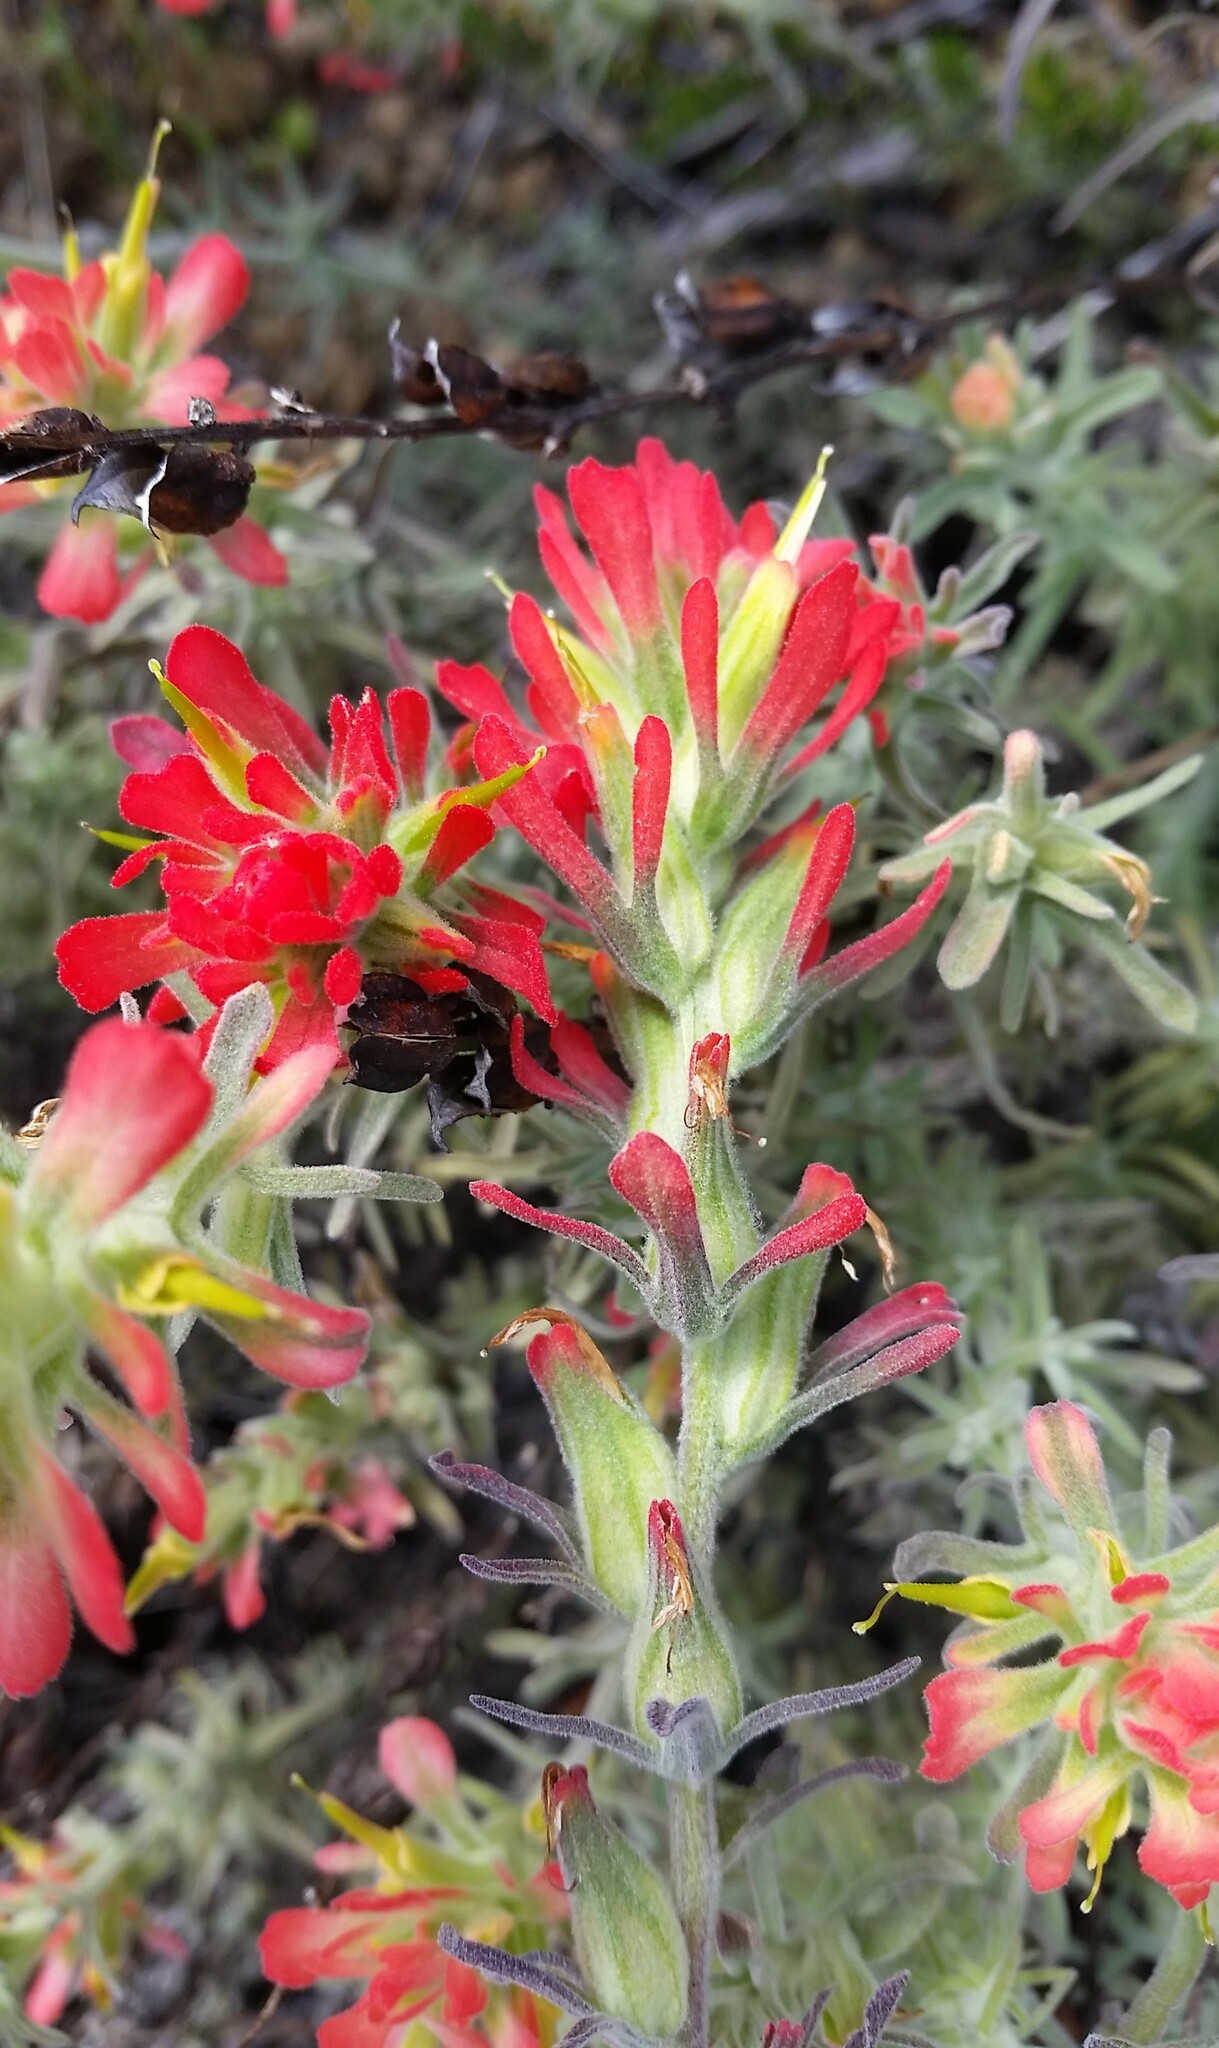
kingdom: Plantae
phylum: Tracheophyta
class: Magnoliopsida
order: Lamiales
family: Orobanchaceae
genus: Castilleja
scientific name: Castilleja foliolosa
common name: Woolly indian paintbrush
